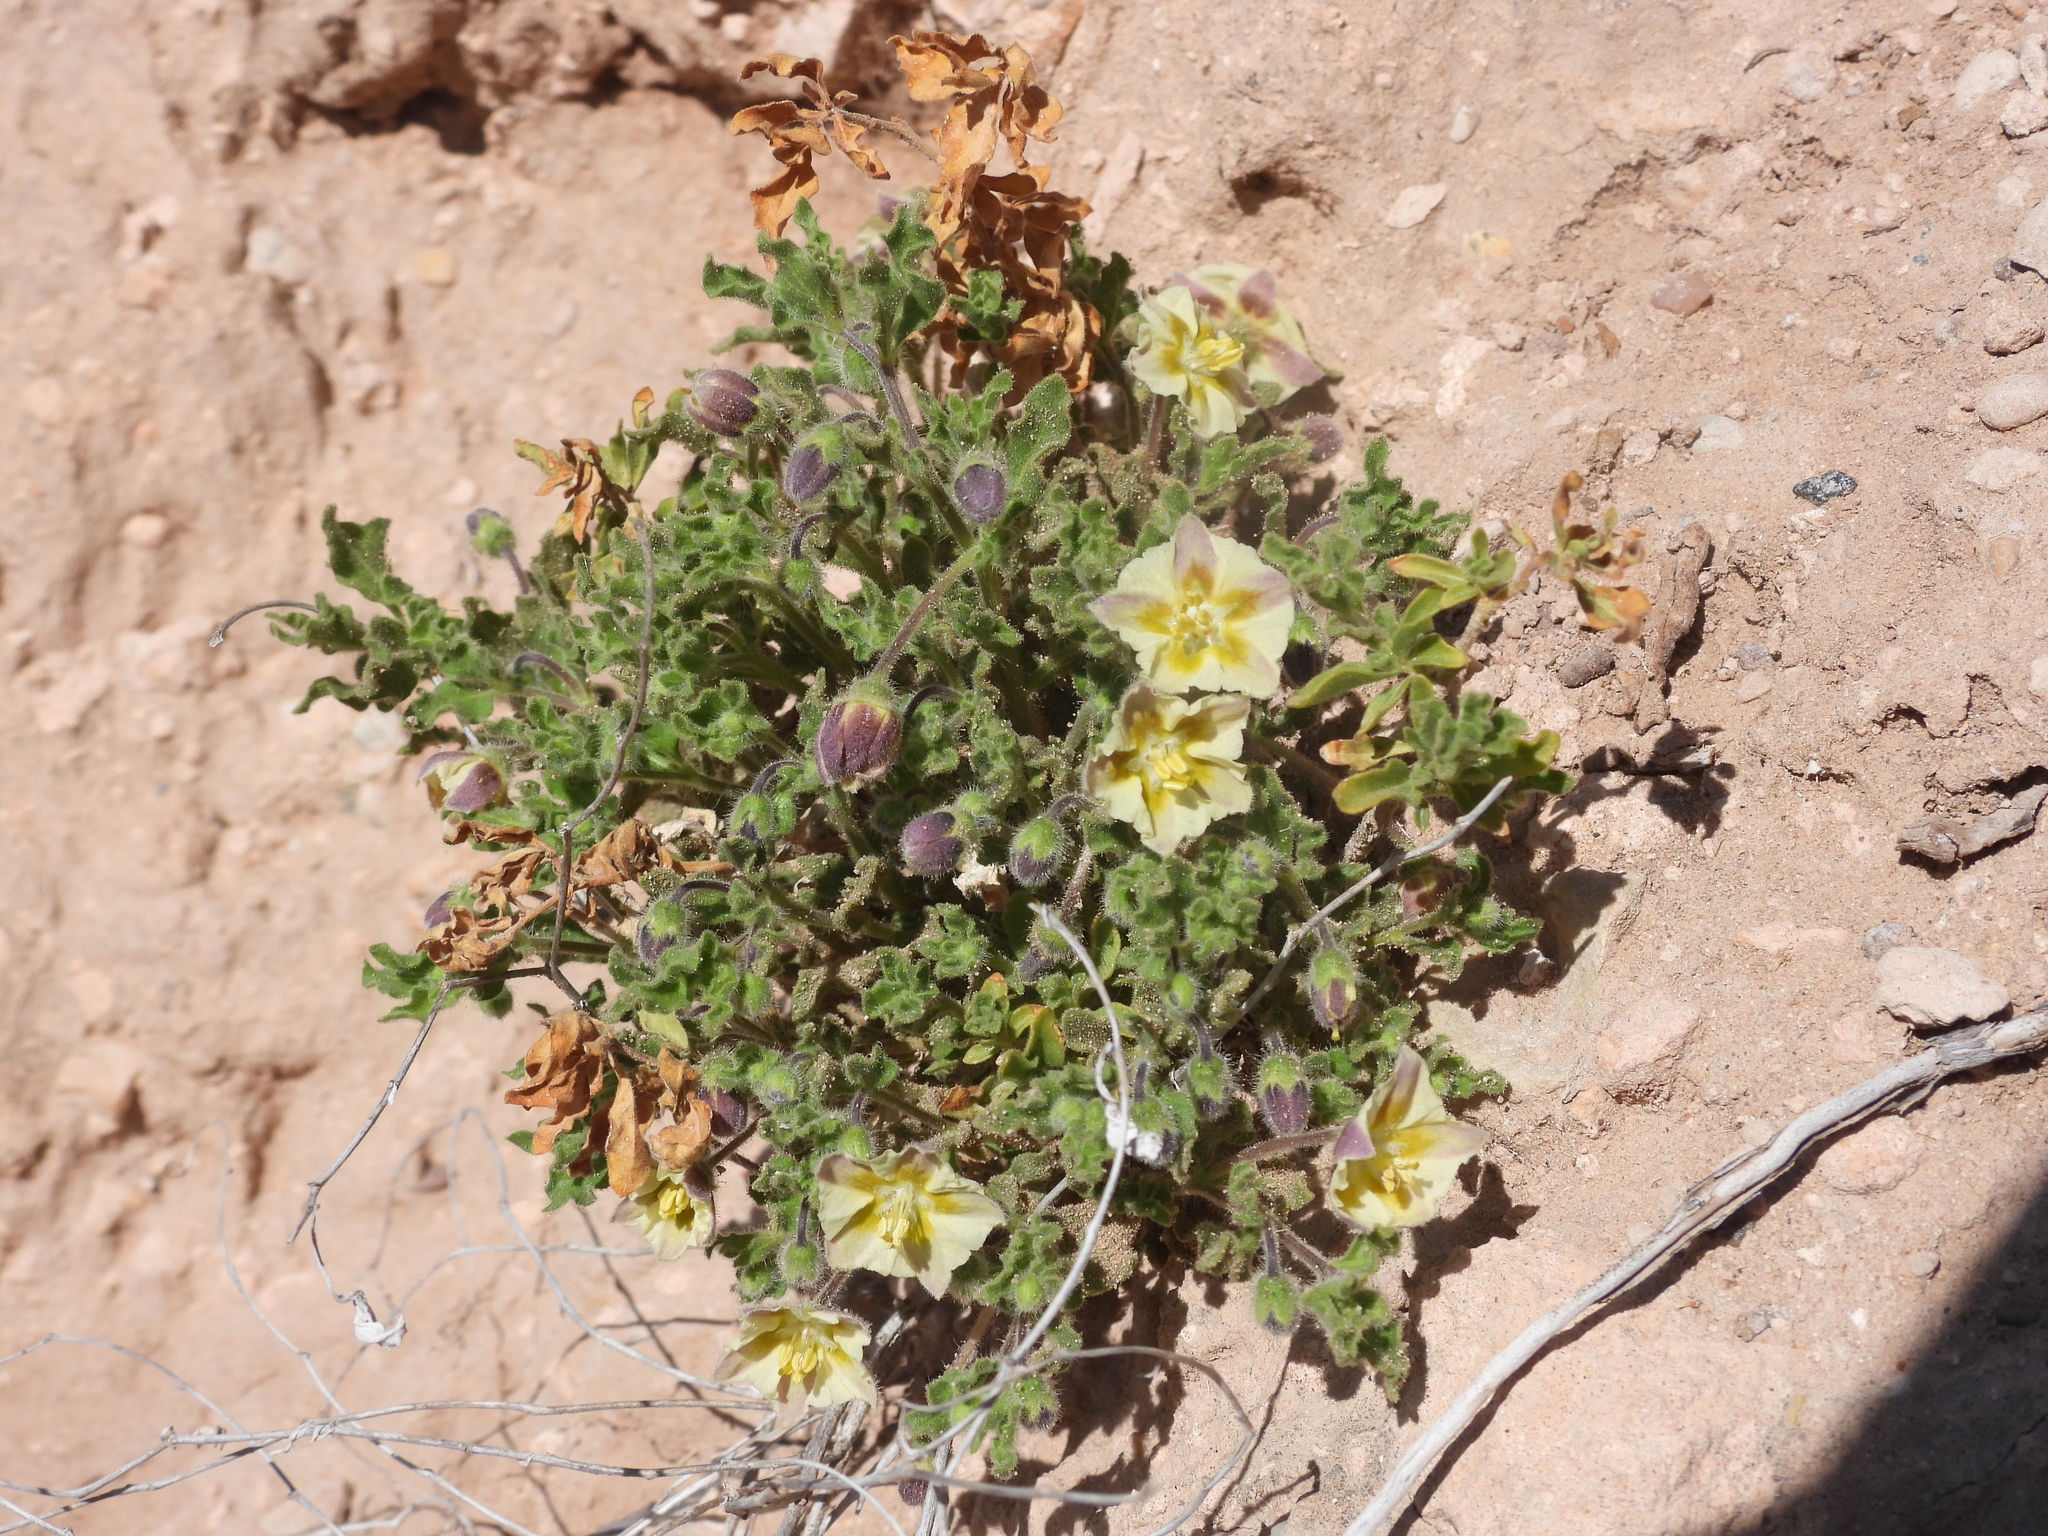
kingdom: Plantae
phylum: Tracheophyta
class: Magnoliopsida
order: Solanales
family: Solanaceae
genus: Chamaesaracha
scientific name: Chamaesaracha sordida
